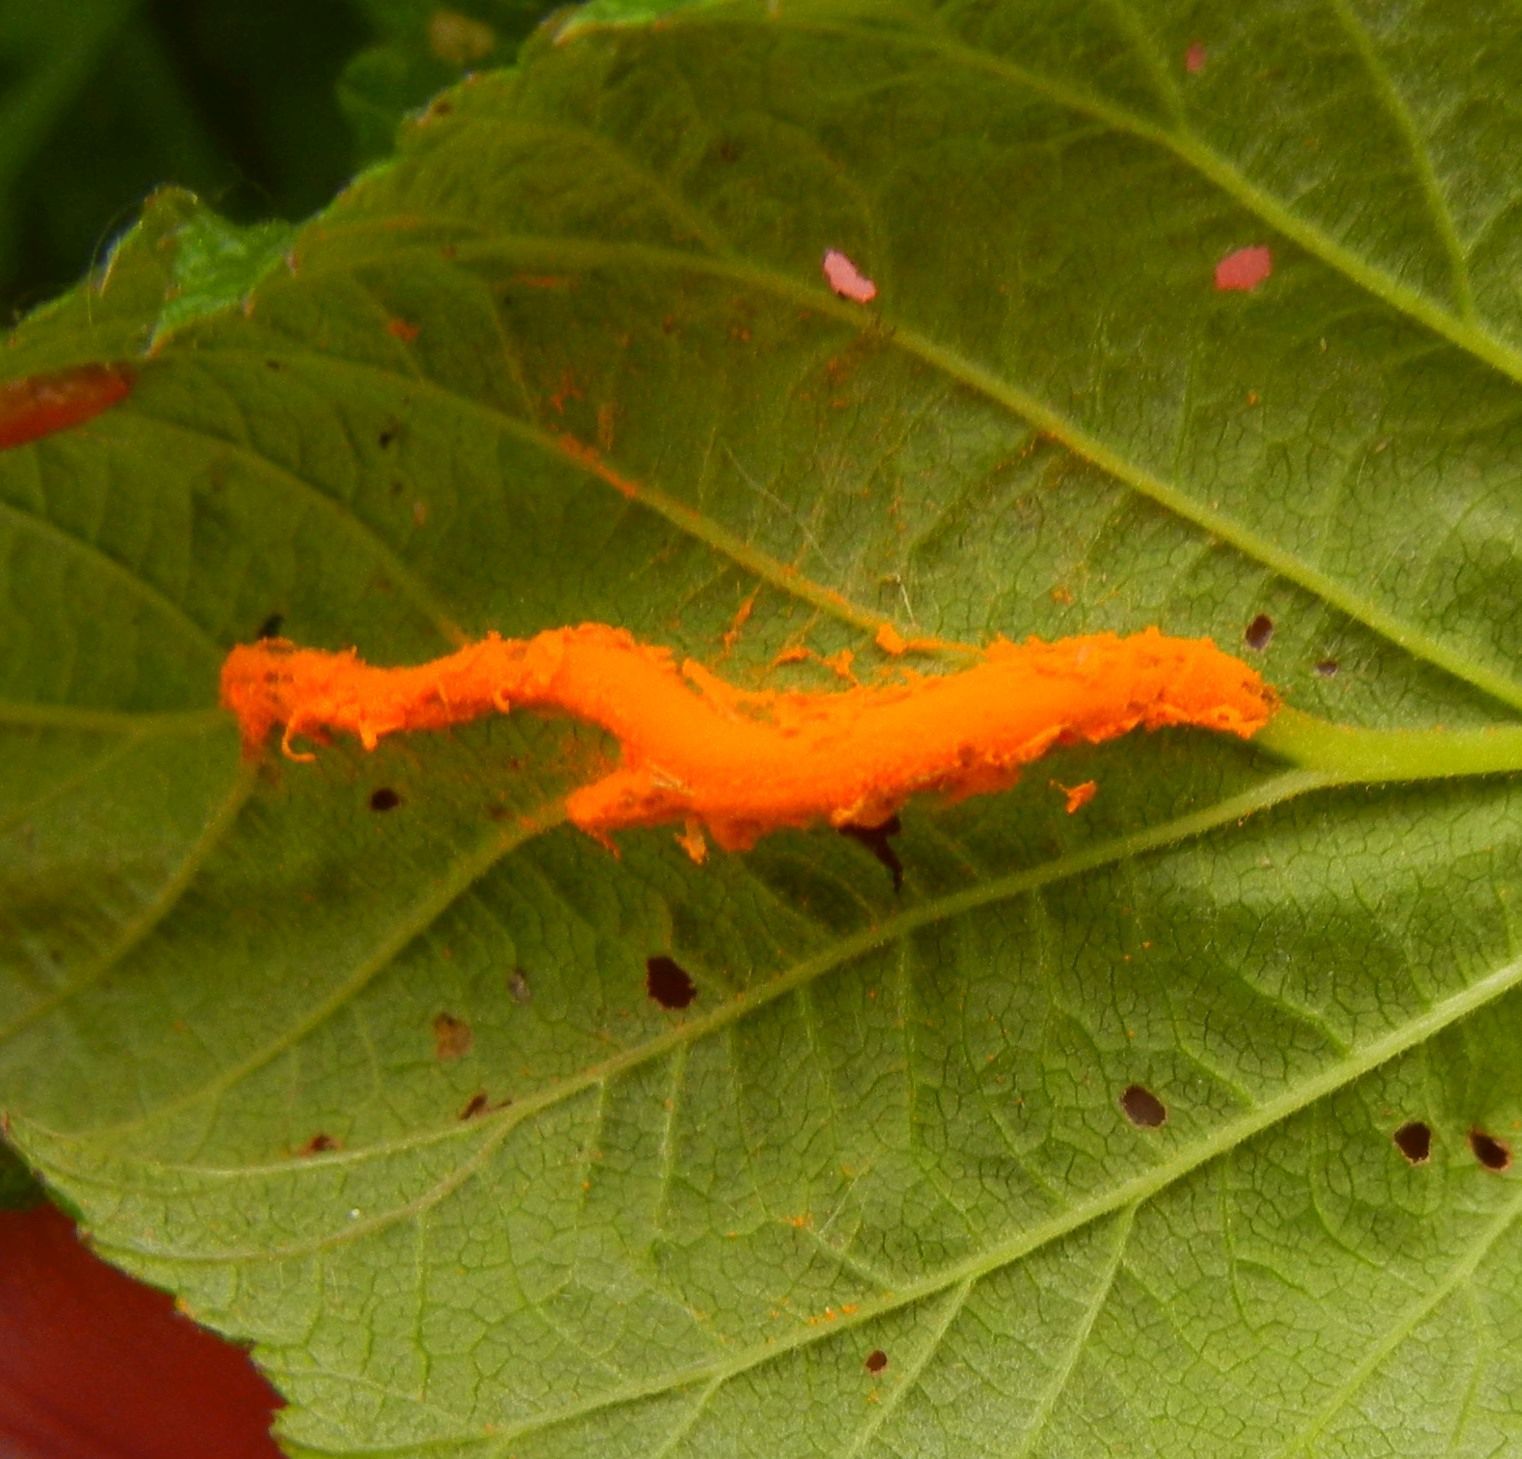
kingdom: Fungi
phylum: Basidiomycota
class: Pucciniomycetes
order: Pucciniales
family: Raveneliaceae
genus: Triphragmium
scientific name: Triphragmium ulmariae
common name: Meadowsweet rust
